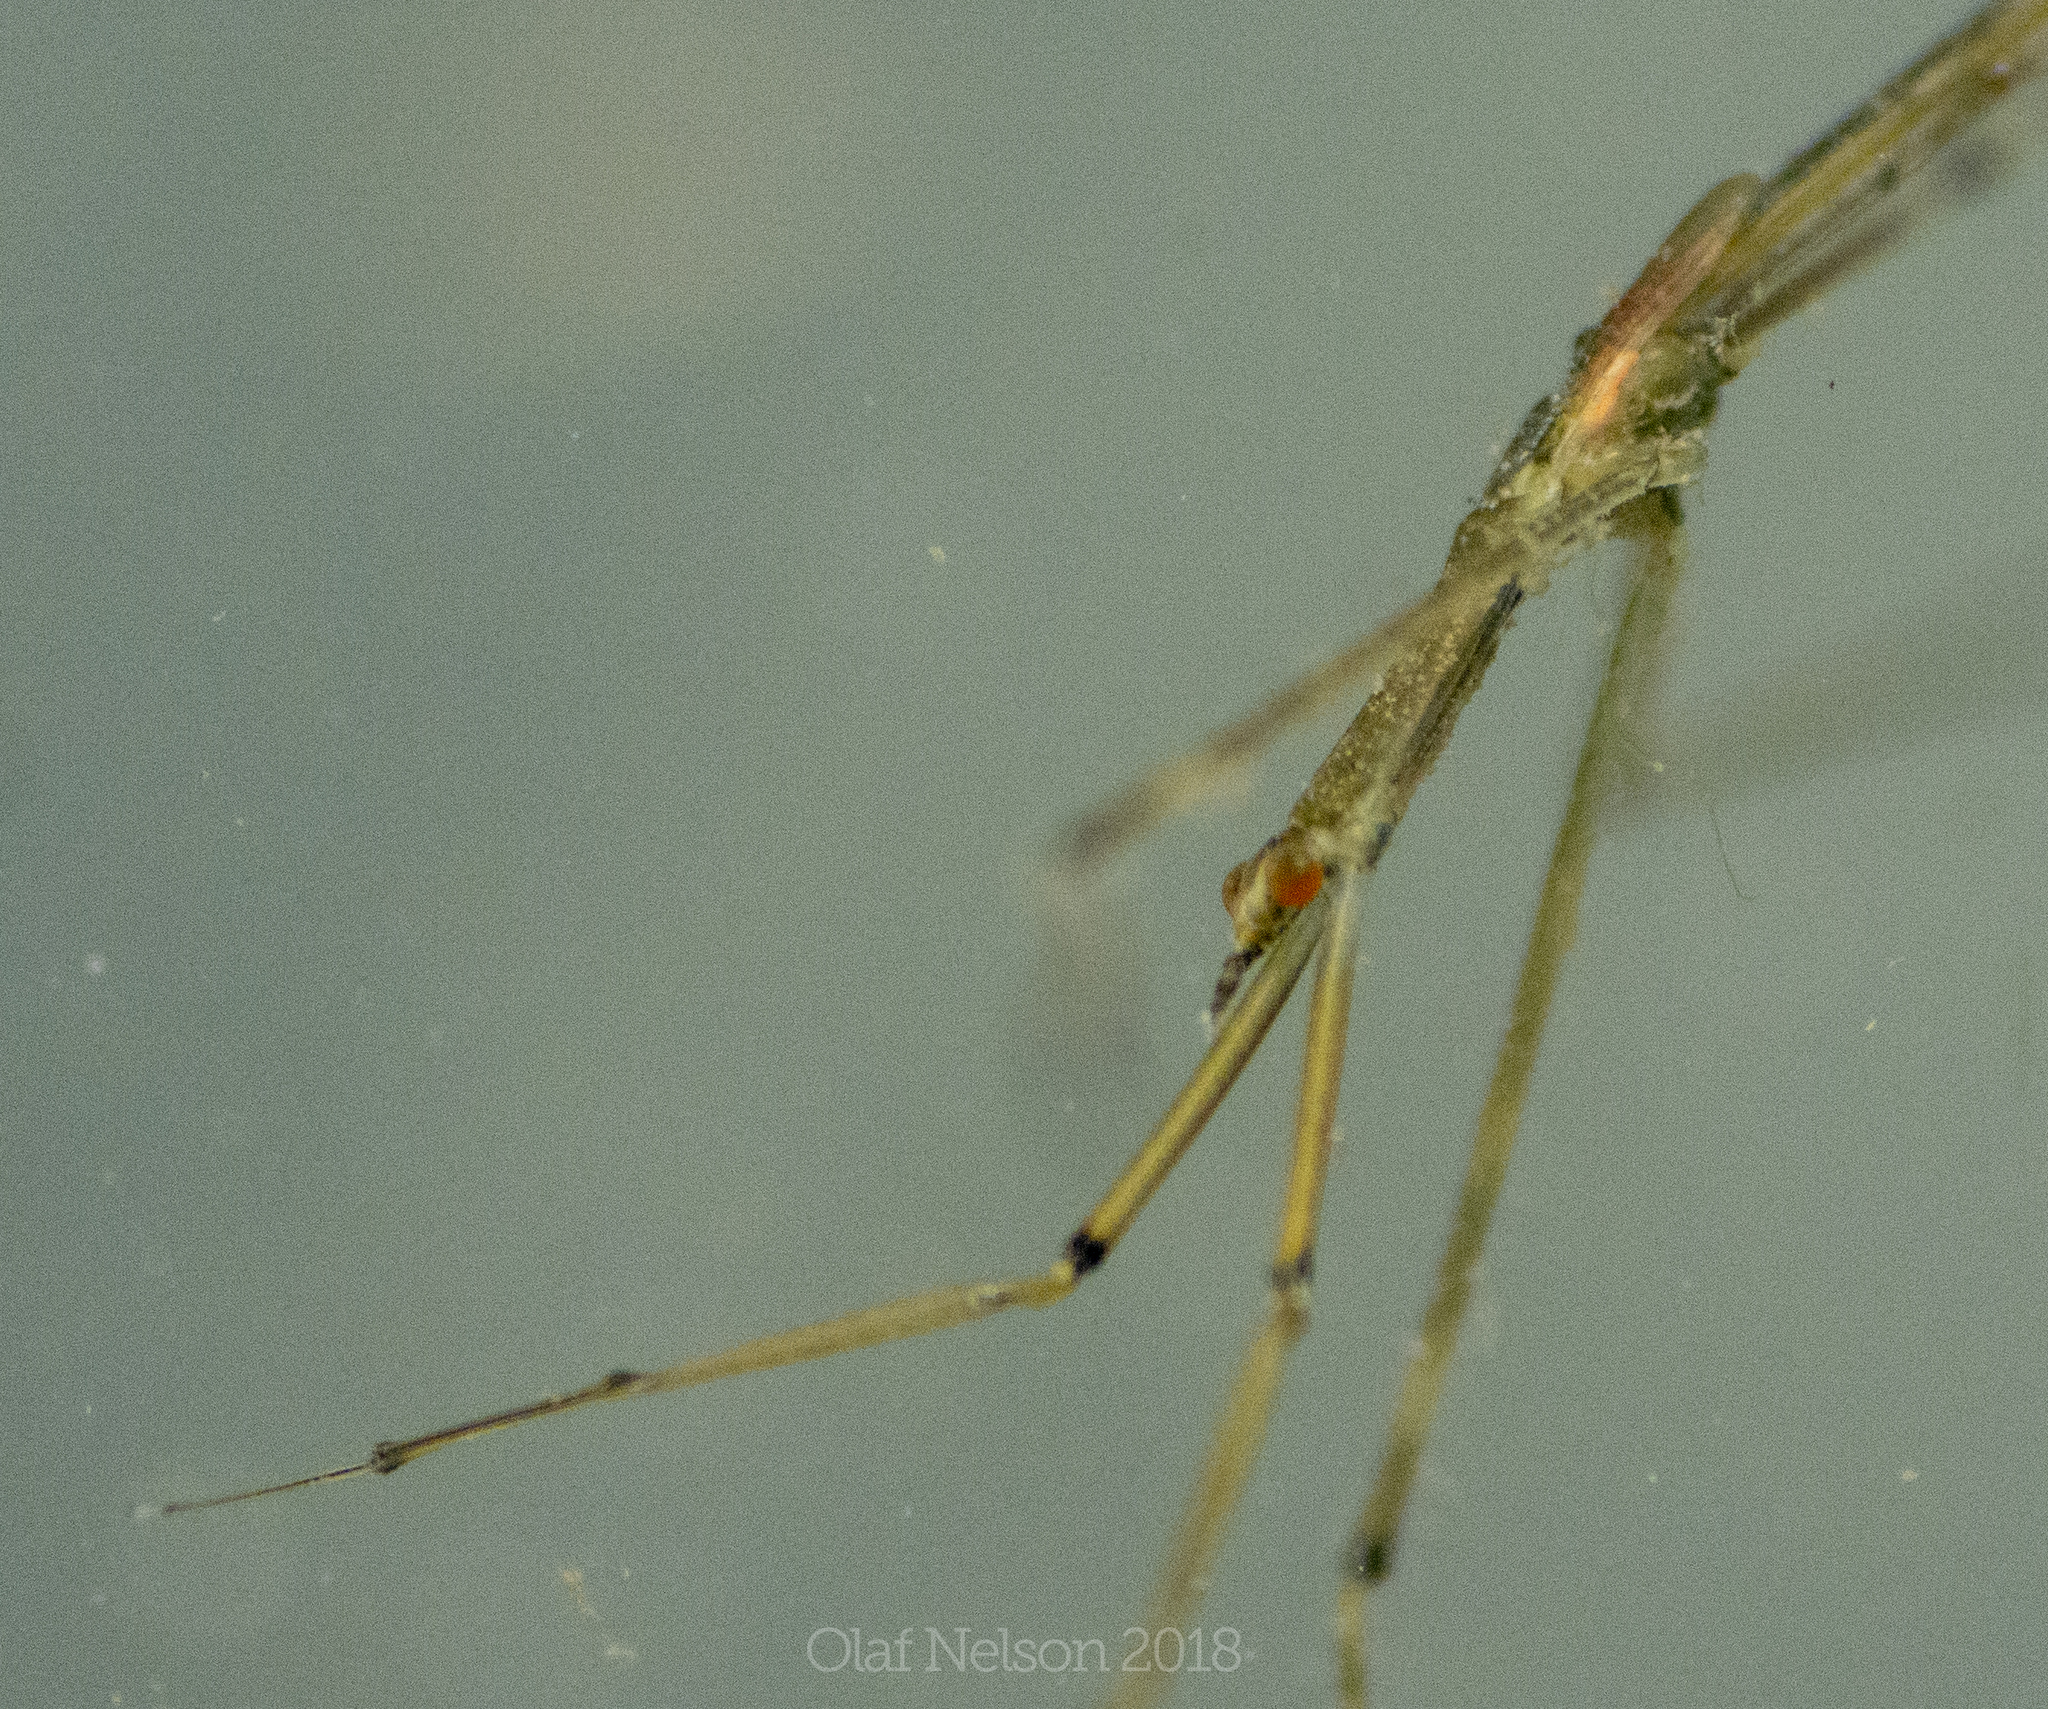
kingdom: Animalia
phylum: Arthropoda
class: Insecta
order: Hemiptera
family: Nepidae
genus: Ranatra
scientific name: Ranatra
